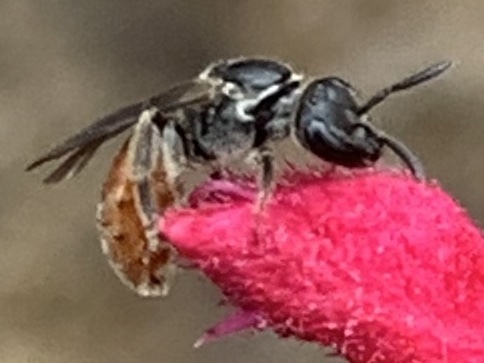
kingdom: Animalia
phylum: Arthropoda
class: Insecta
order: Hymenoptera
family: Halictidae
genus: Lasioglossum
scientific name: Lasioglossum ovaliceps
